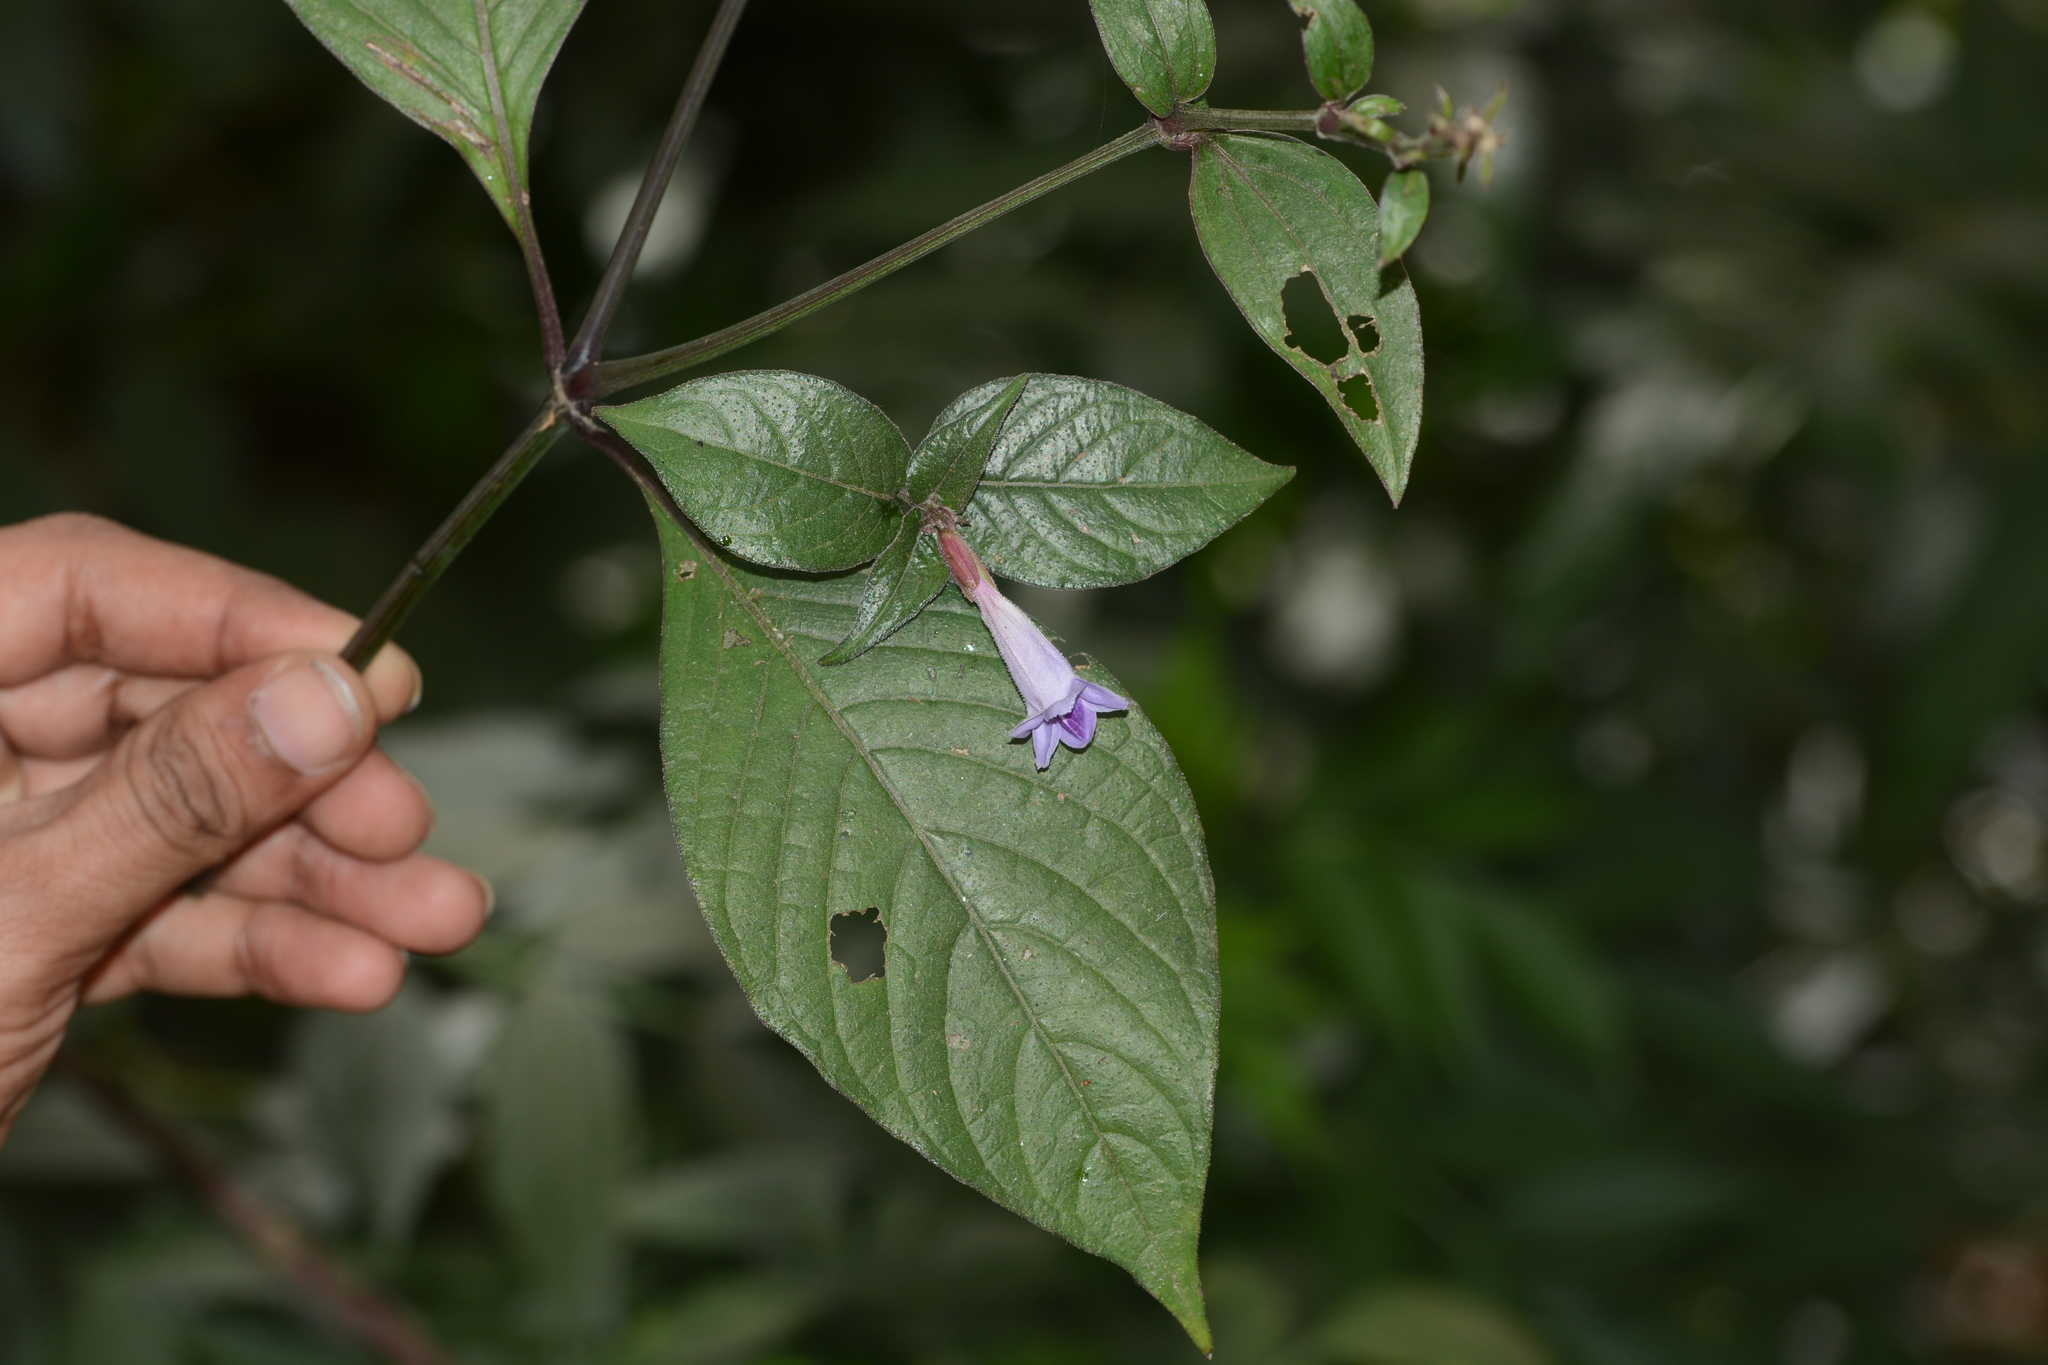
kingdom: Plantae
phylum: Tracheophyta
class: Magnoliopsida
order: Lamiales
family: Acanthaceae
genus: Asystasia
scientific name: Asystasia dalzelliana
